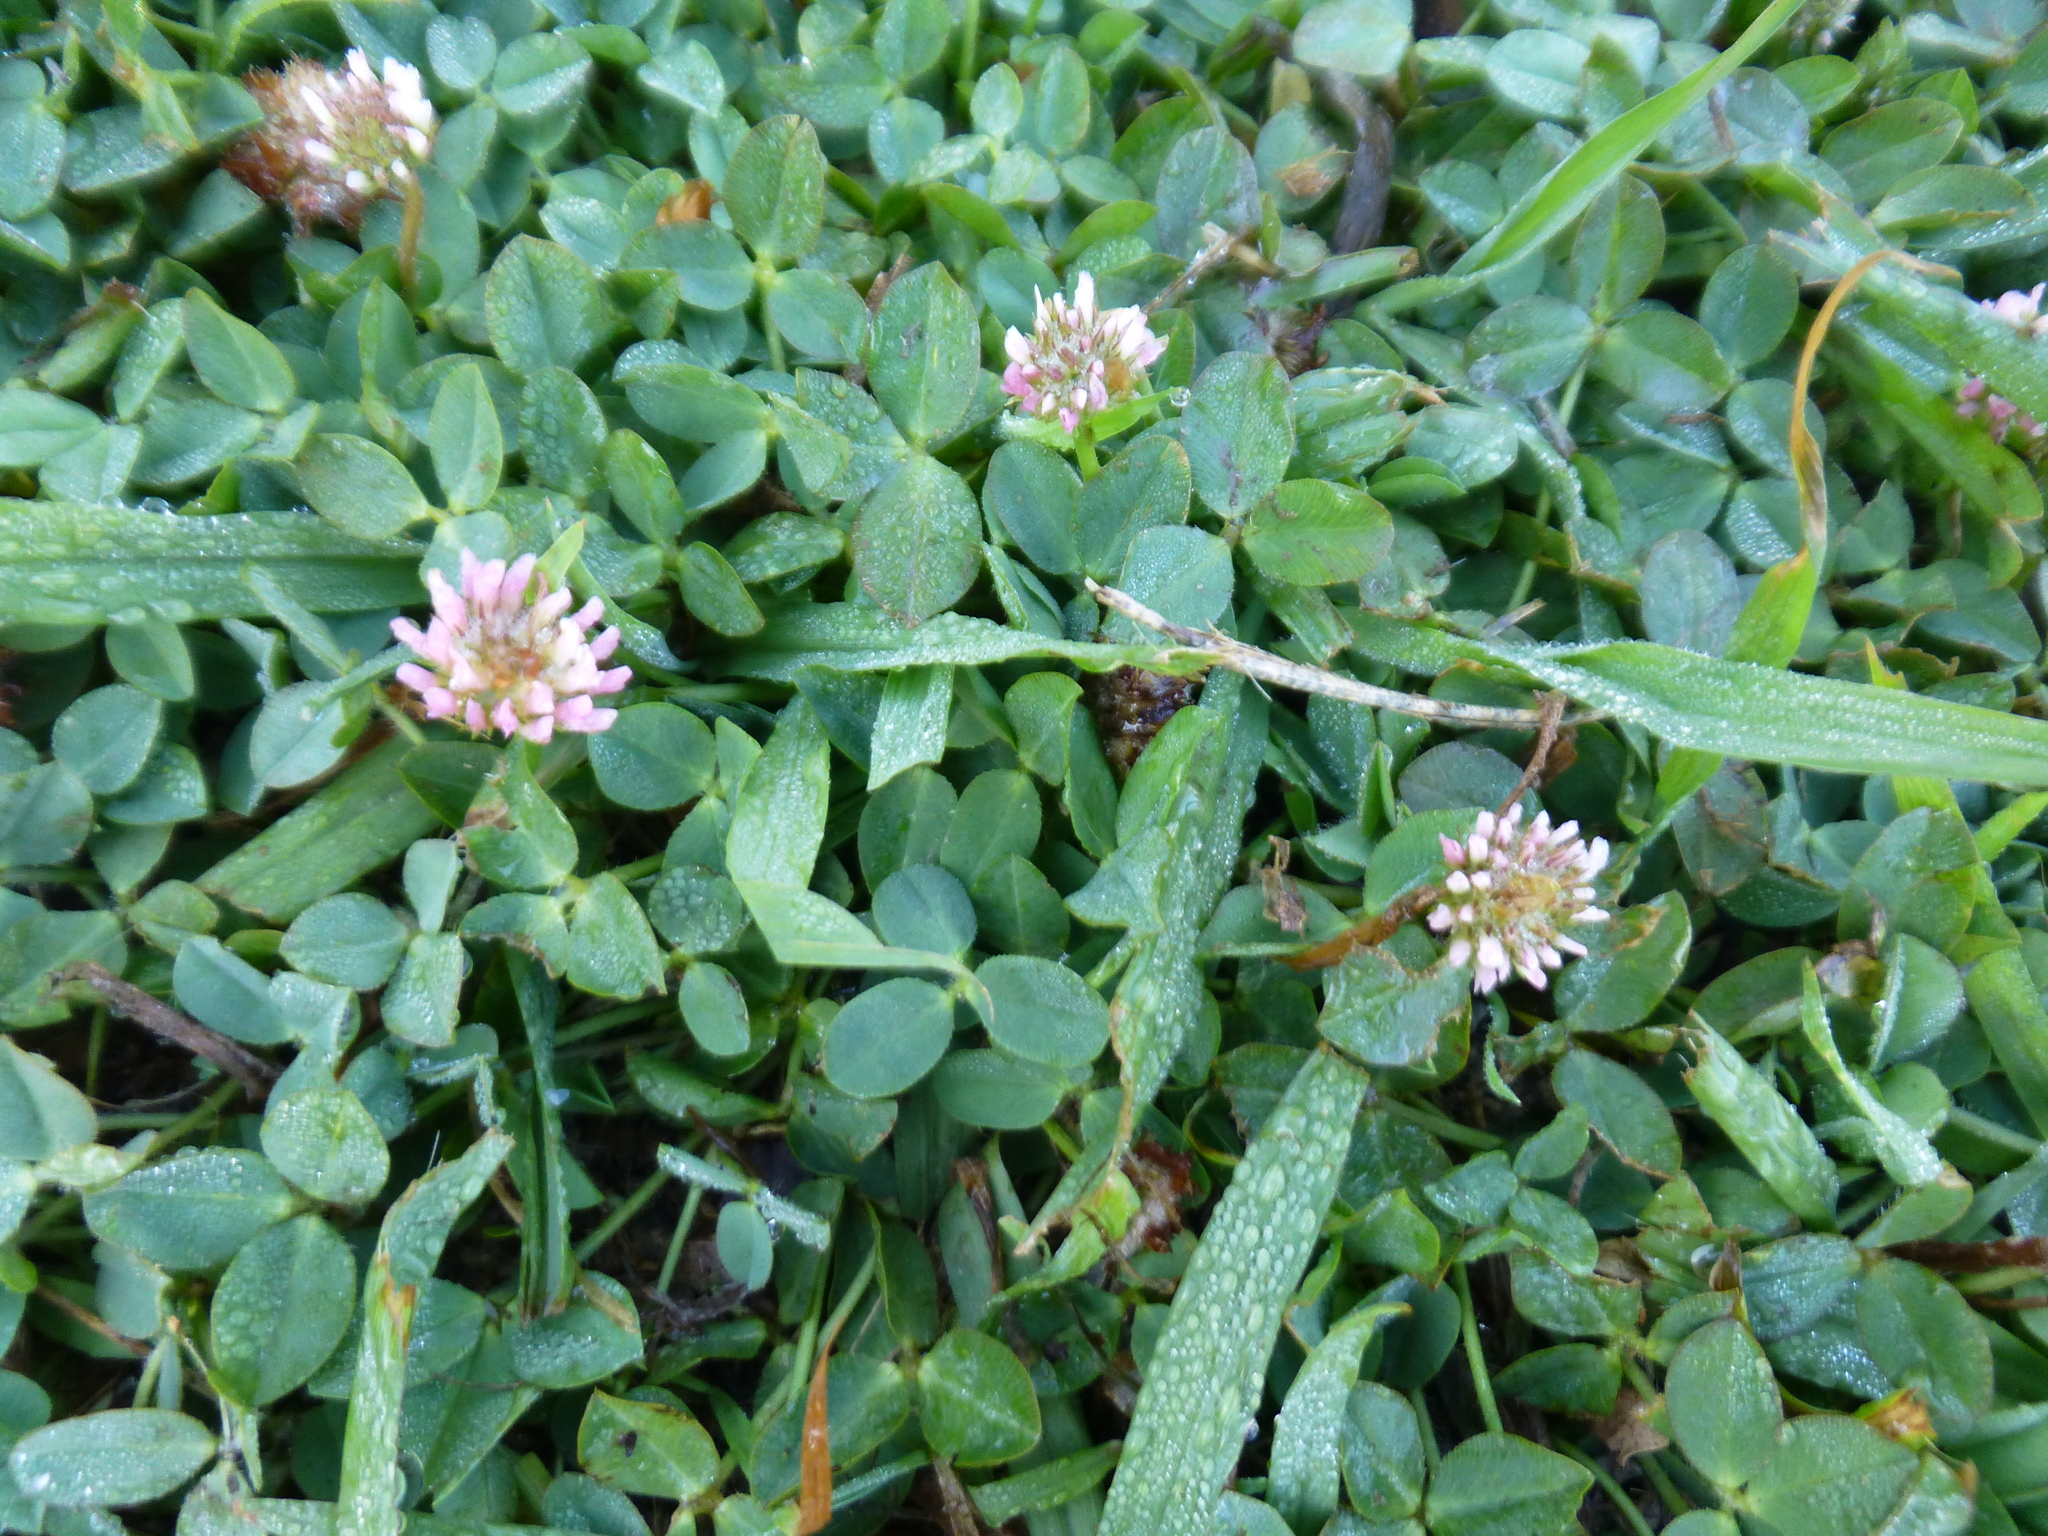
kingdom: Plantae
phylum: Tracheophyta
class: Magnoliopsida
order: Fabales
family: Fabaceae
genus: Trifolium
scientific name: Trifolium fragiferum
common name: Strawberry clover
